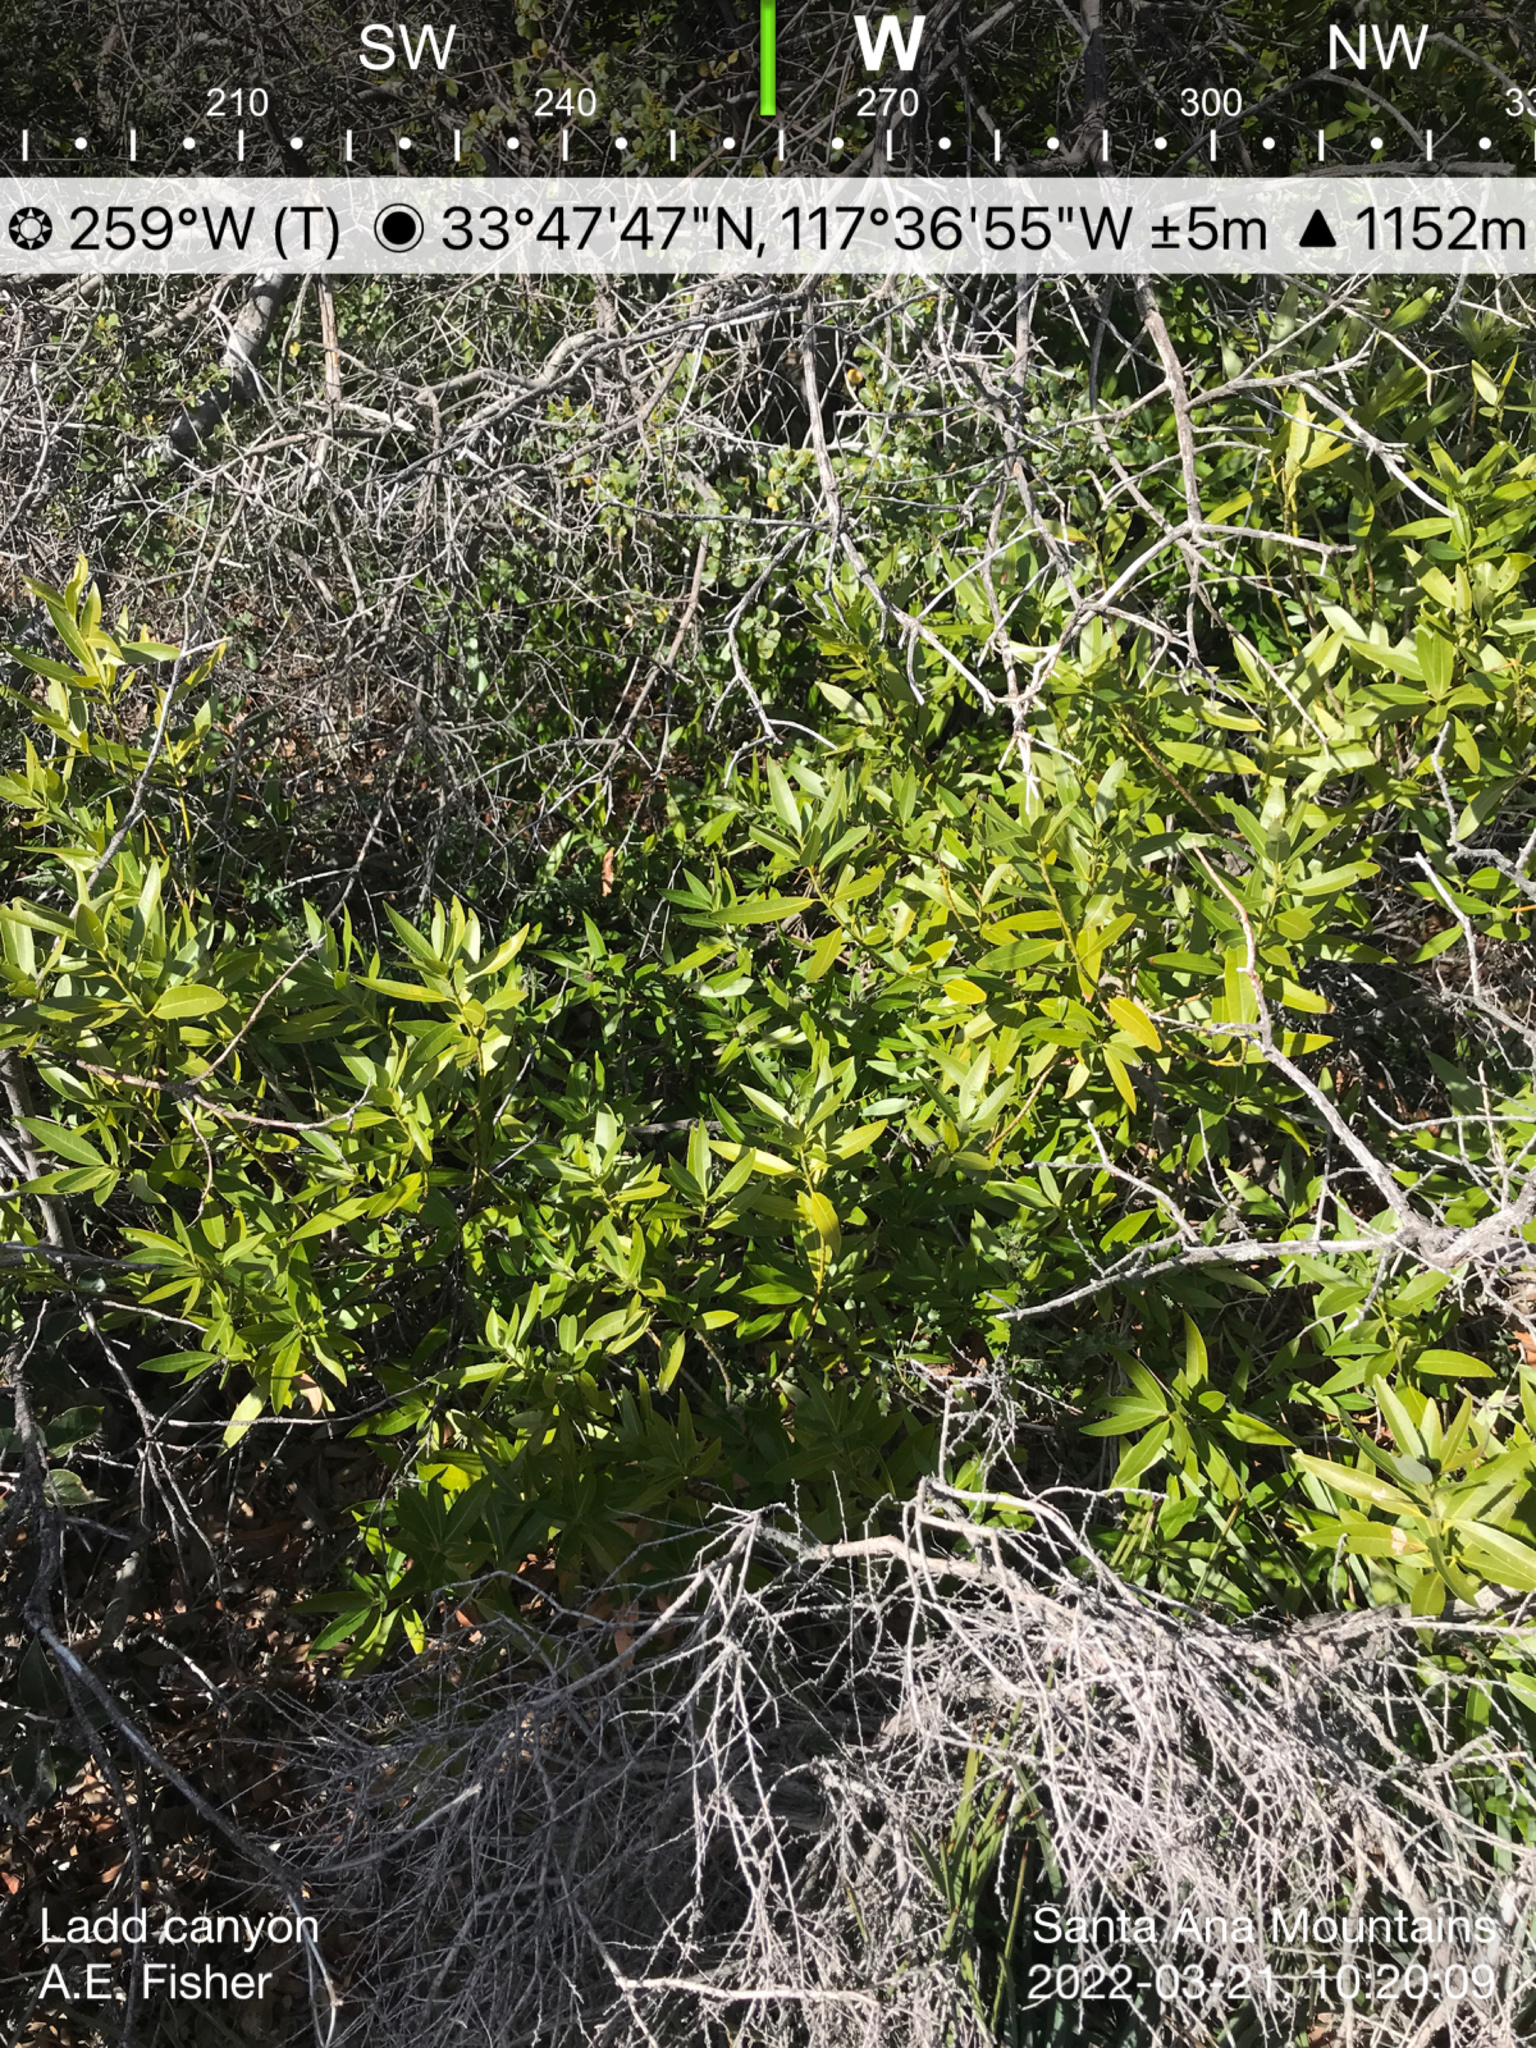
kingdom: Plantae
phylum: Tracheophyta
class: Magnoliopsida
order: Laurales
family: Lauraceae
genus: Umbellularia
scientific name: Umbellularia californica
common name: California bay
